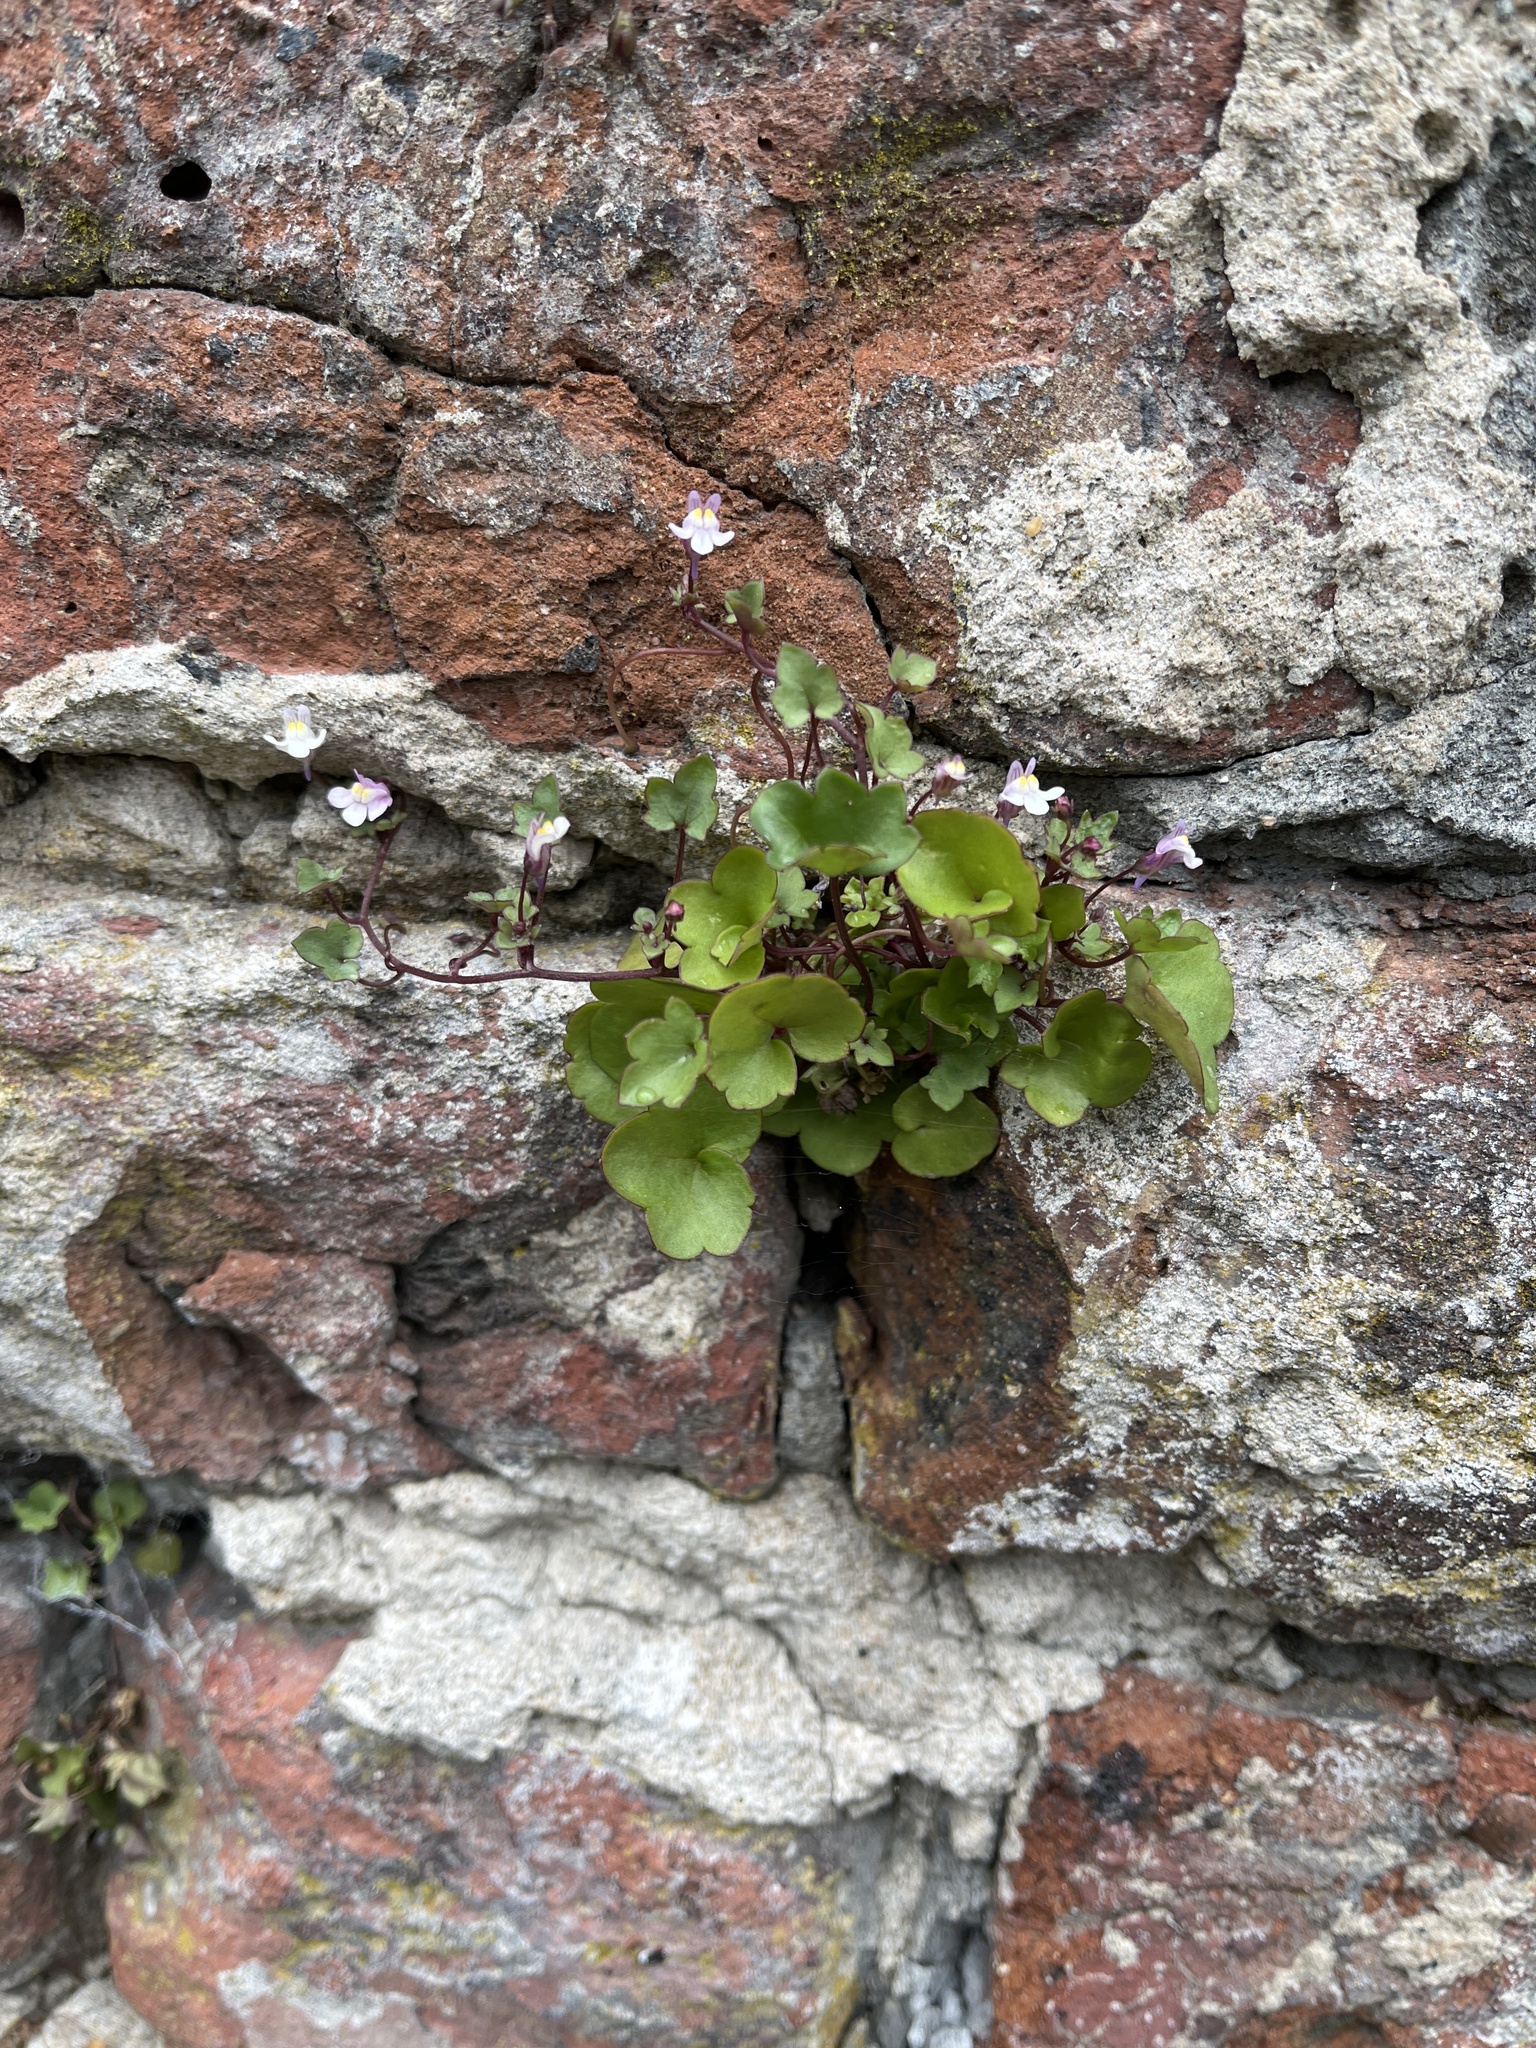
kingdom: Plantae
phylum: Tracheophyta
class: Magnoliopsida
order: Lamiales
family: Plantaginaceae
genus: Cymbalaria
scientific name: Cymbalaria muralis
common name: Ivy-leaved toadflax
